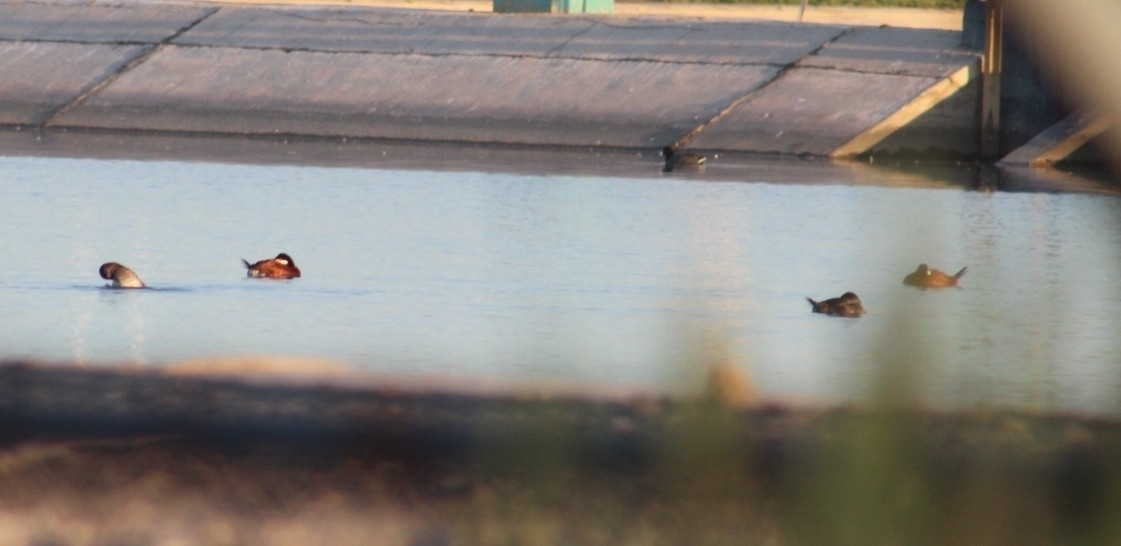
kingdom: Animalia
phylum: Chordata
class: Aves
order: Anseriformes
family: Anatidae
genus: Oxyura
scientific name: Oxyura jamaicensis
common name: Ruddy duck
